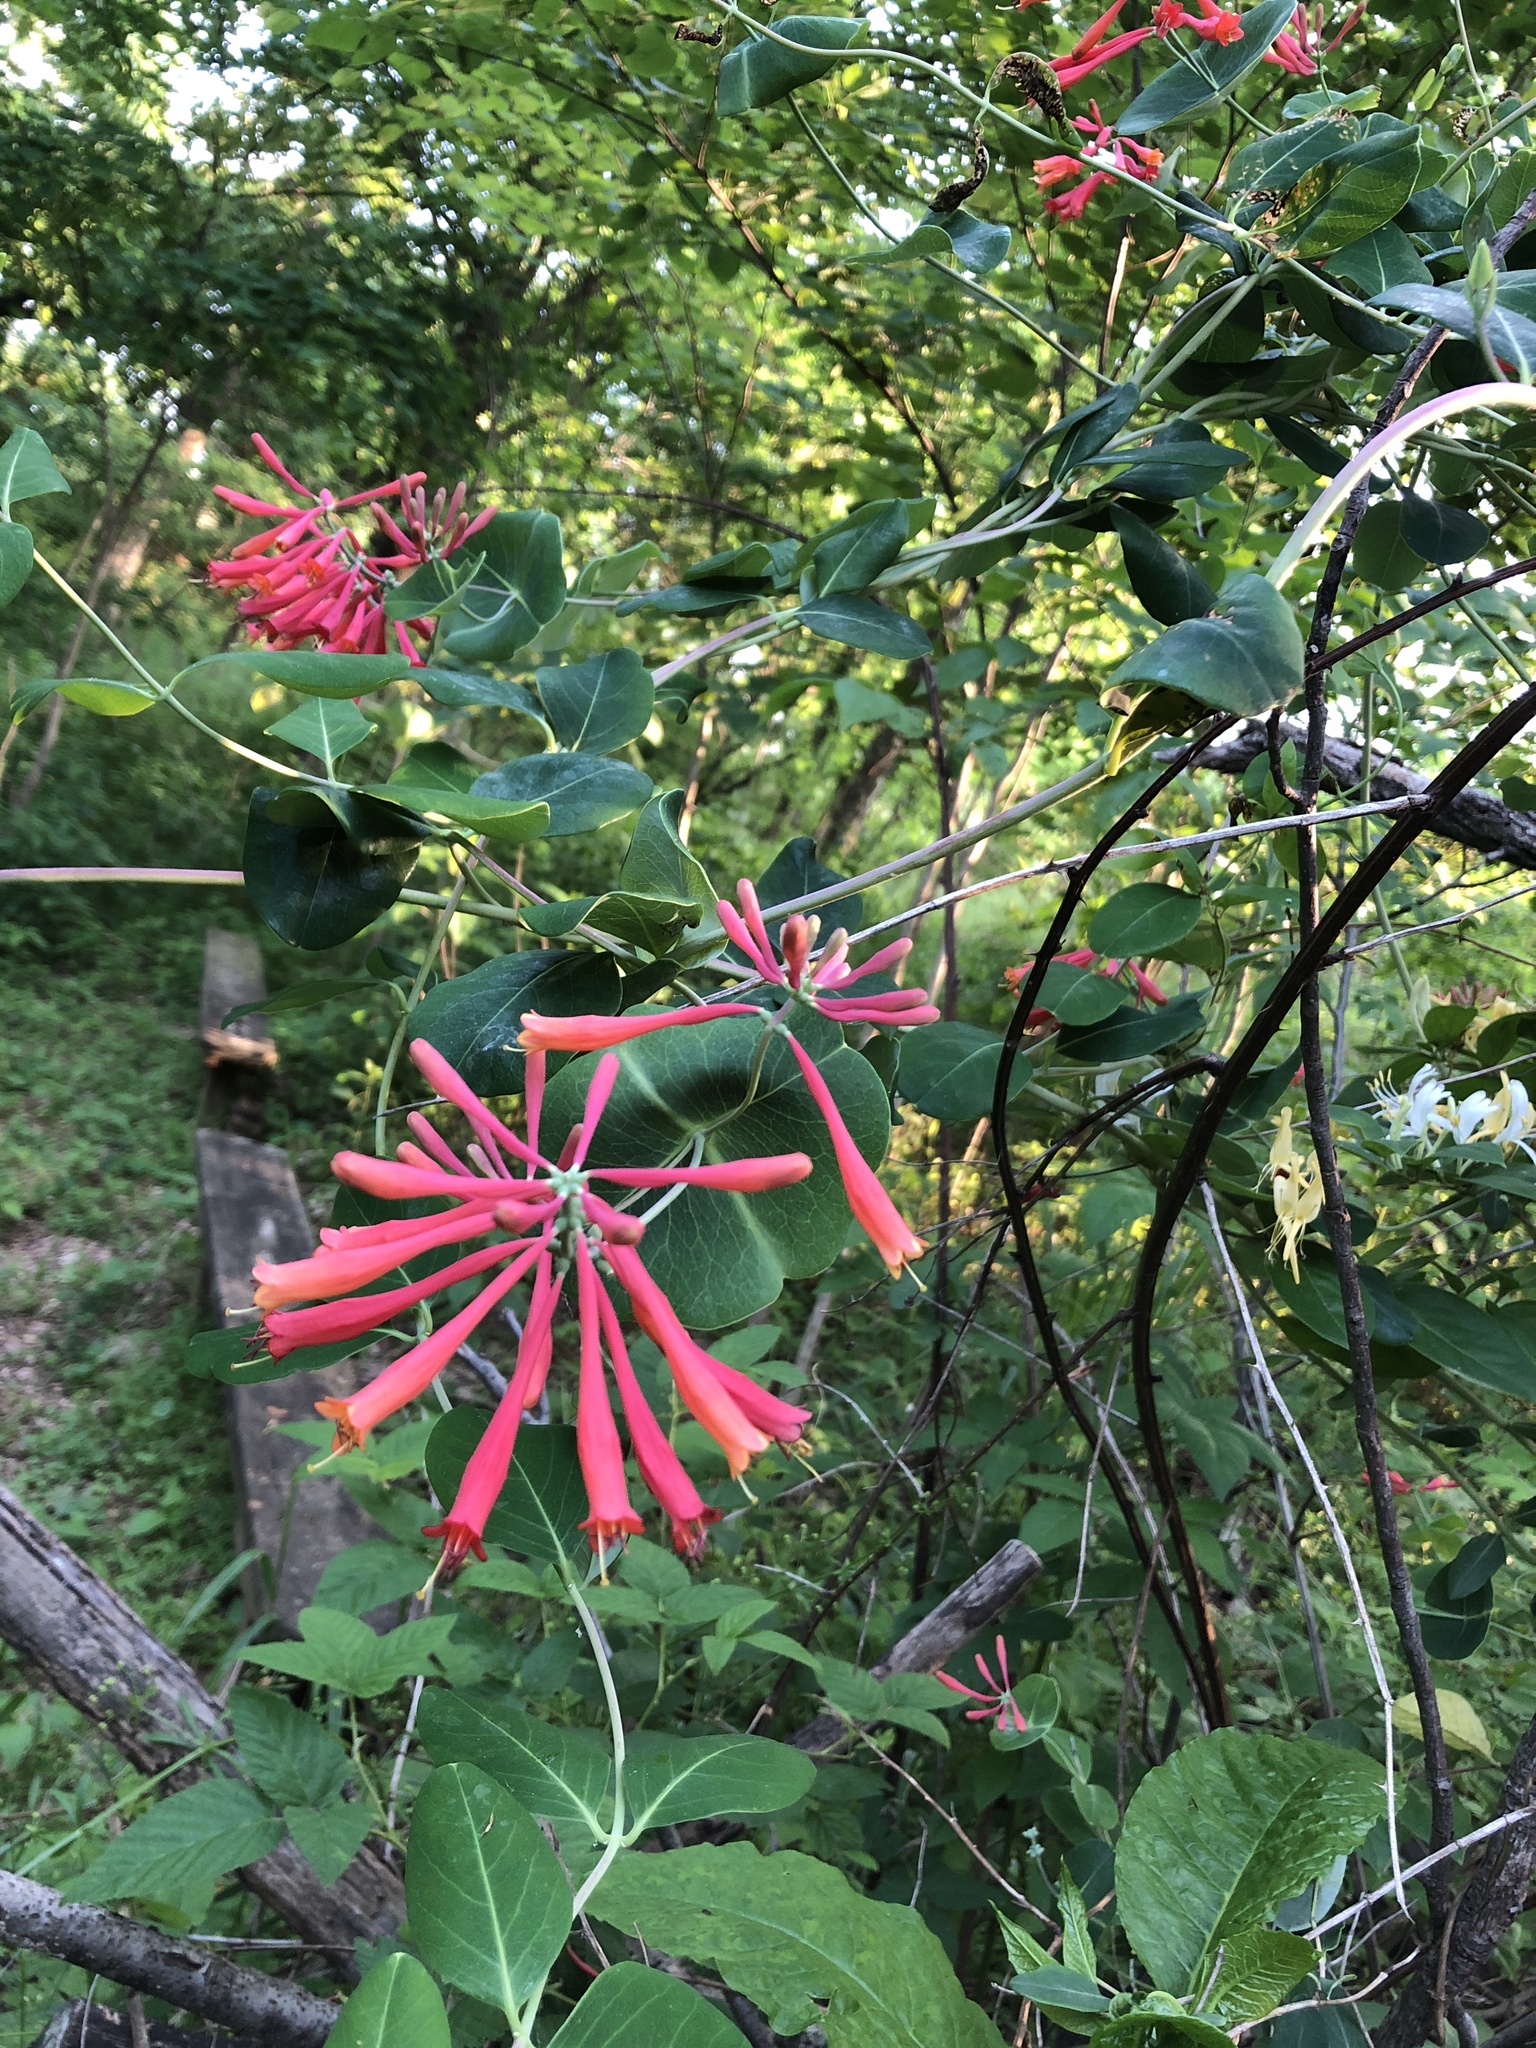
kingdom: Plantae
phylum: Tracheophyta
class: Magnoliopsida
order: Dipsacales
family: Caprifoliaceae
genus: Lonicera
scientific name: Lonicera sempervirens
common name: Coral honeysuckle
